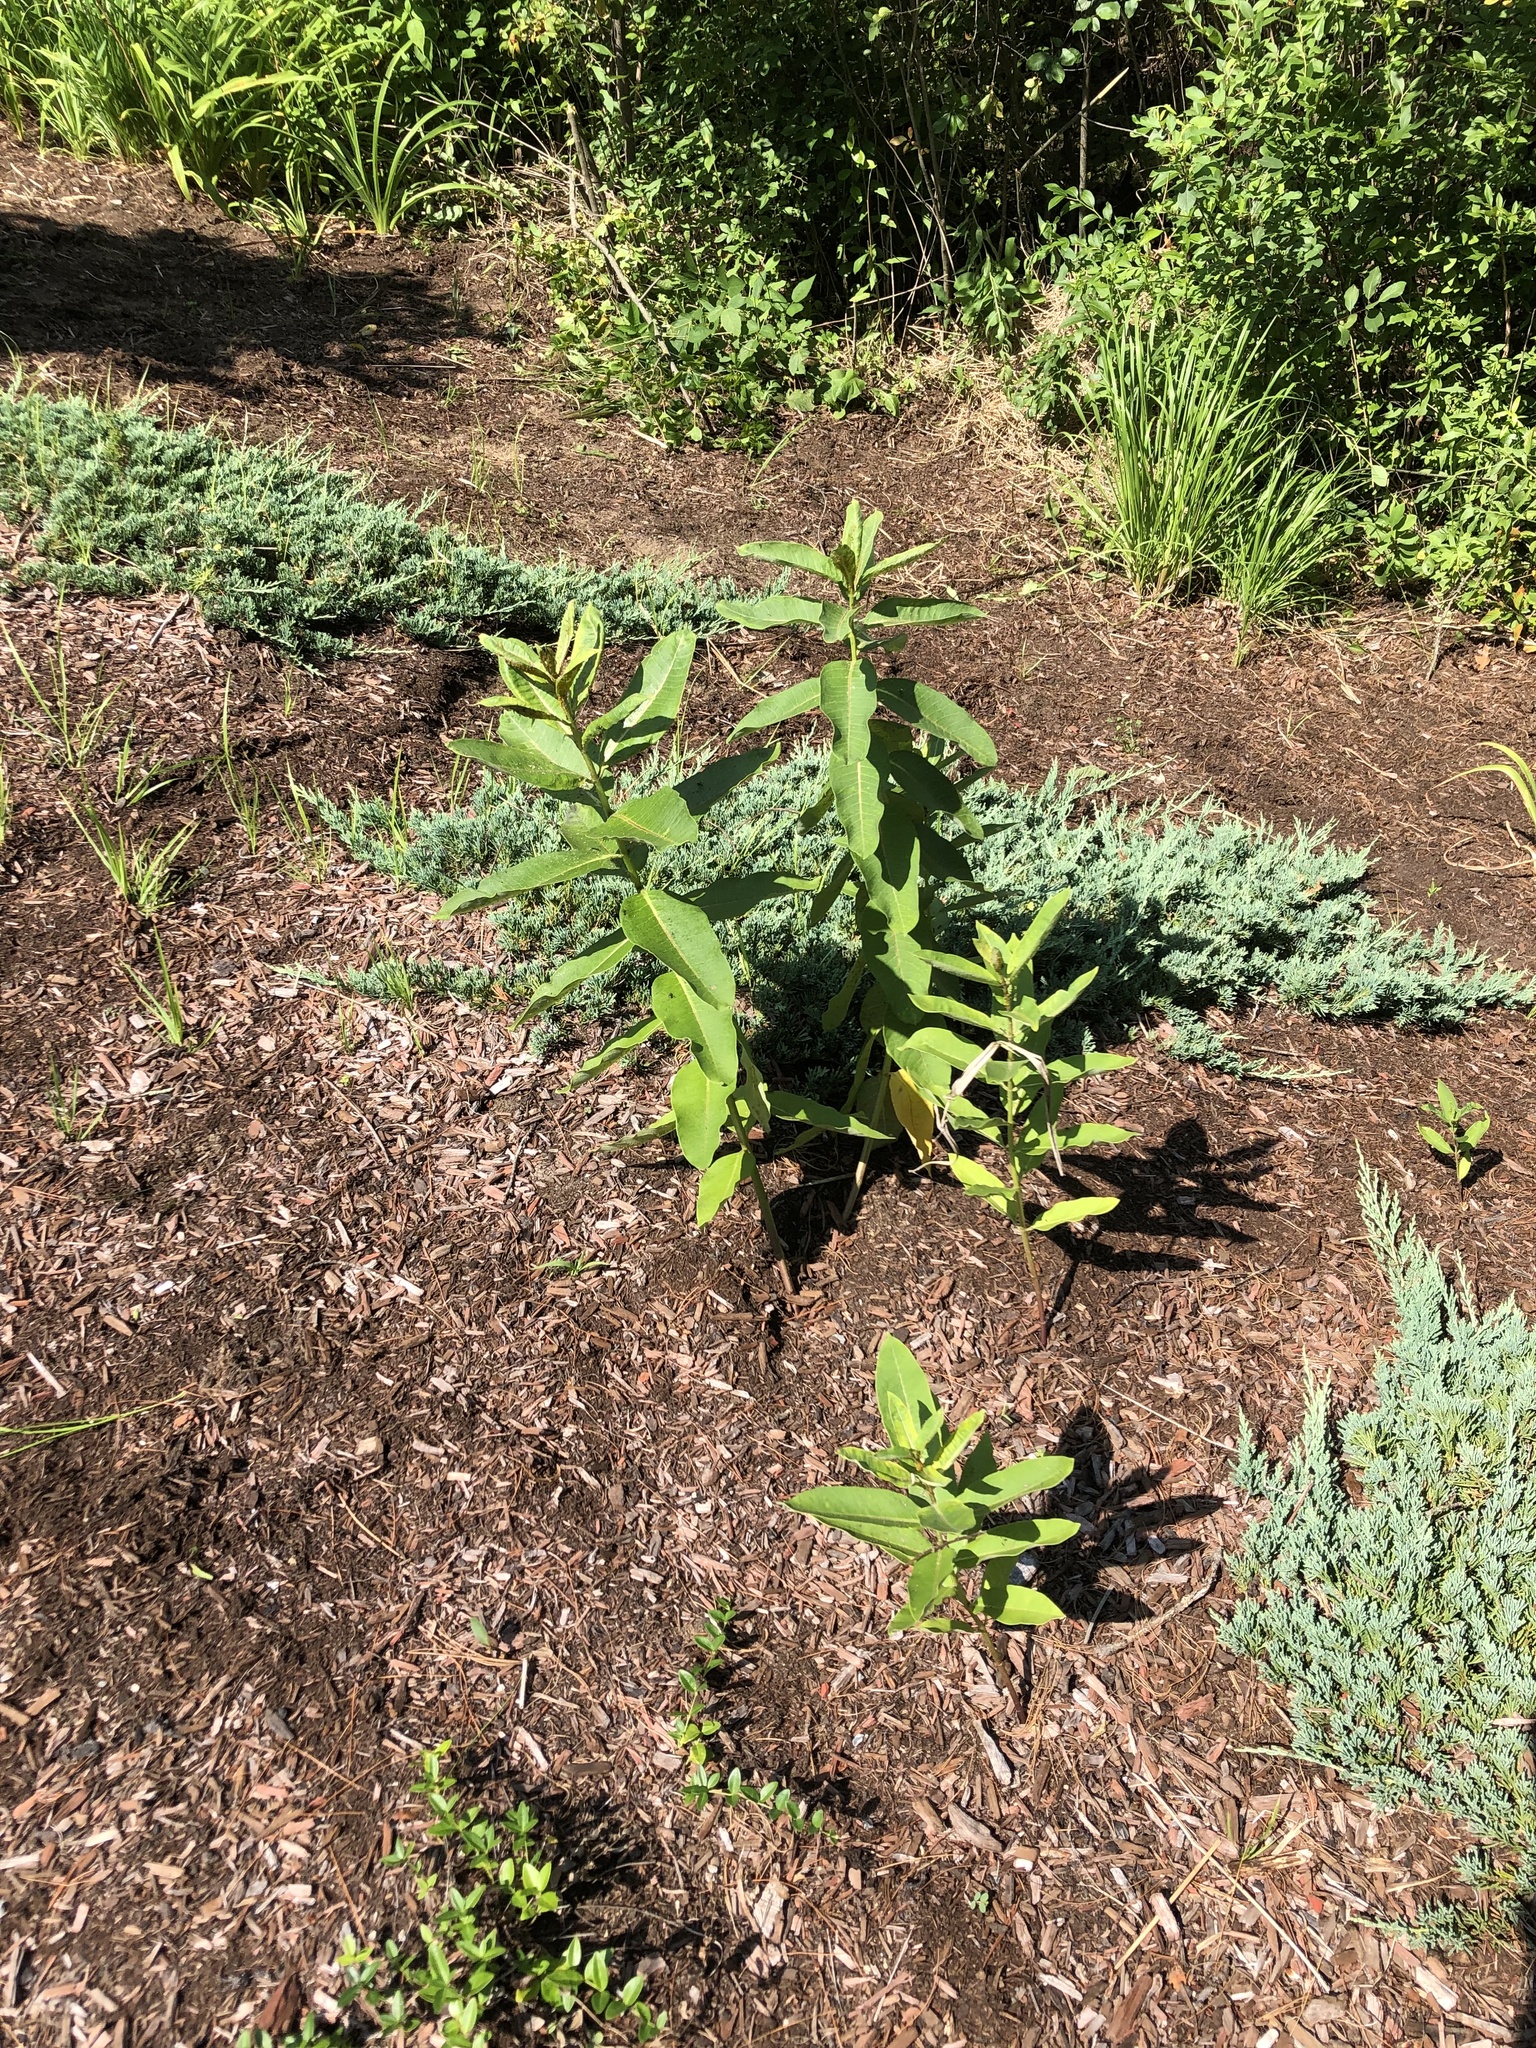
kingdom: Plantae
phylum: Tracheophyta
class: Magnoliopsida
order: Gentianales
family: Apocynaceae
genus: Asclepias
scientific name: Asclepias syriaca
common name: Common milkweed
